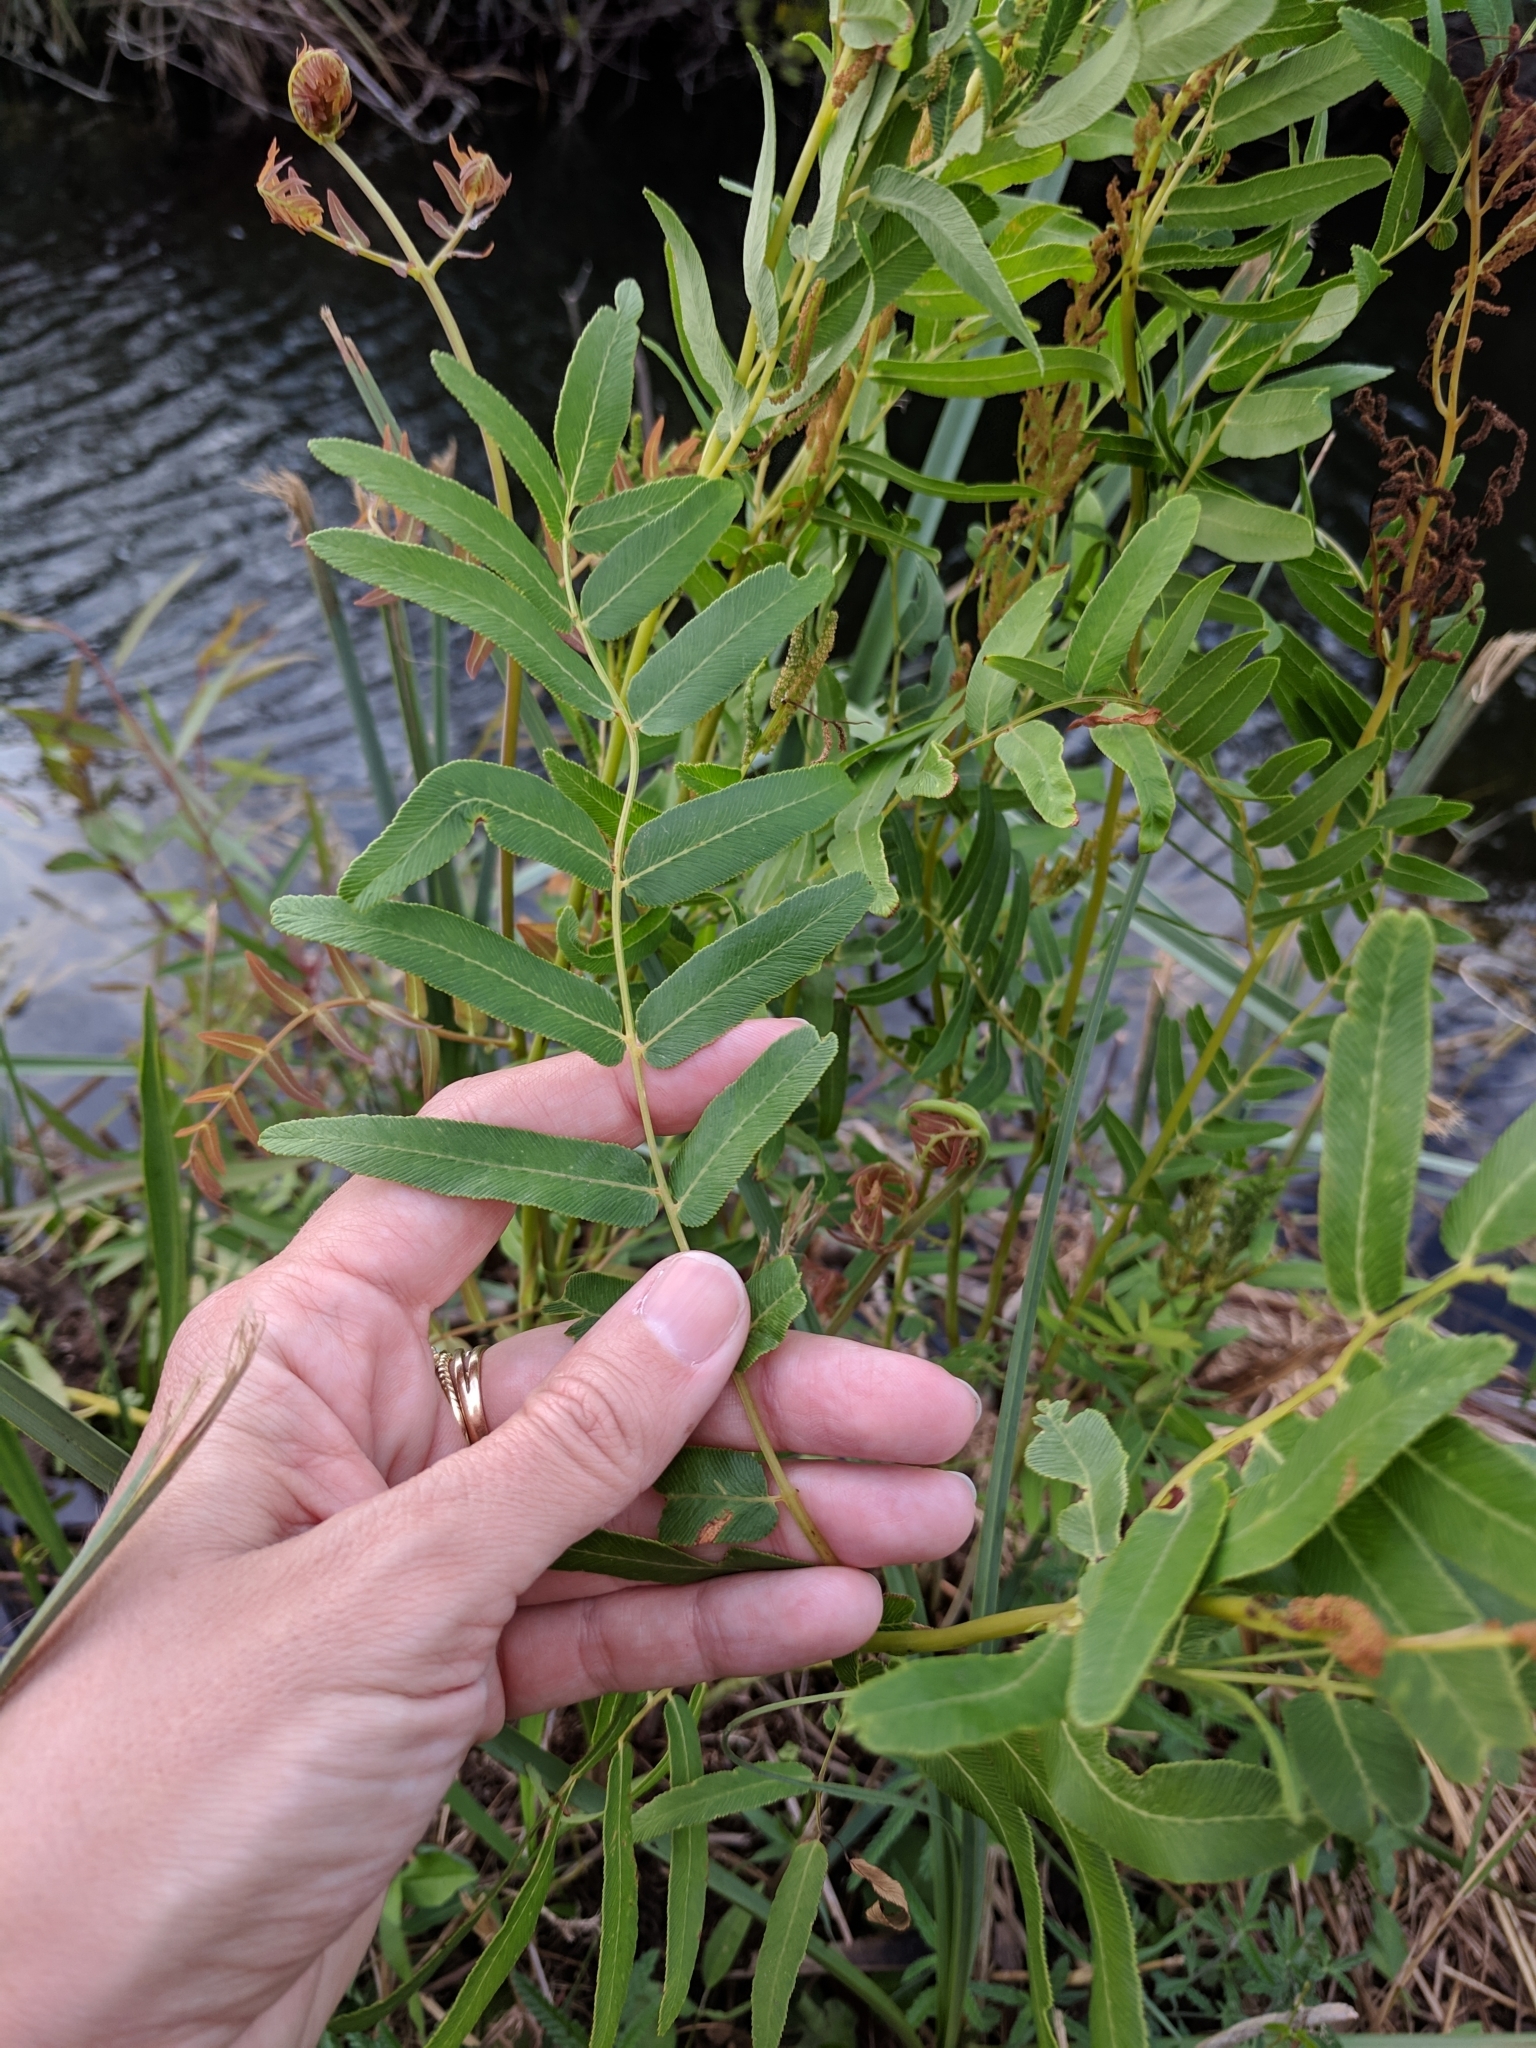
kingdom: Plantae
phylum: Tracheophyta
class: Polypodiopsida
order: Osmundales
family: Osmundaceae
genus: Osmunda
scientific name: Osmunda spectabilis
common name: American royal fern
